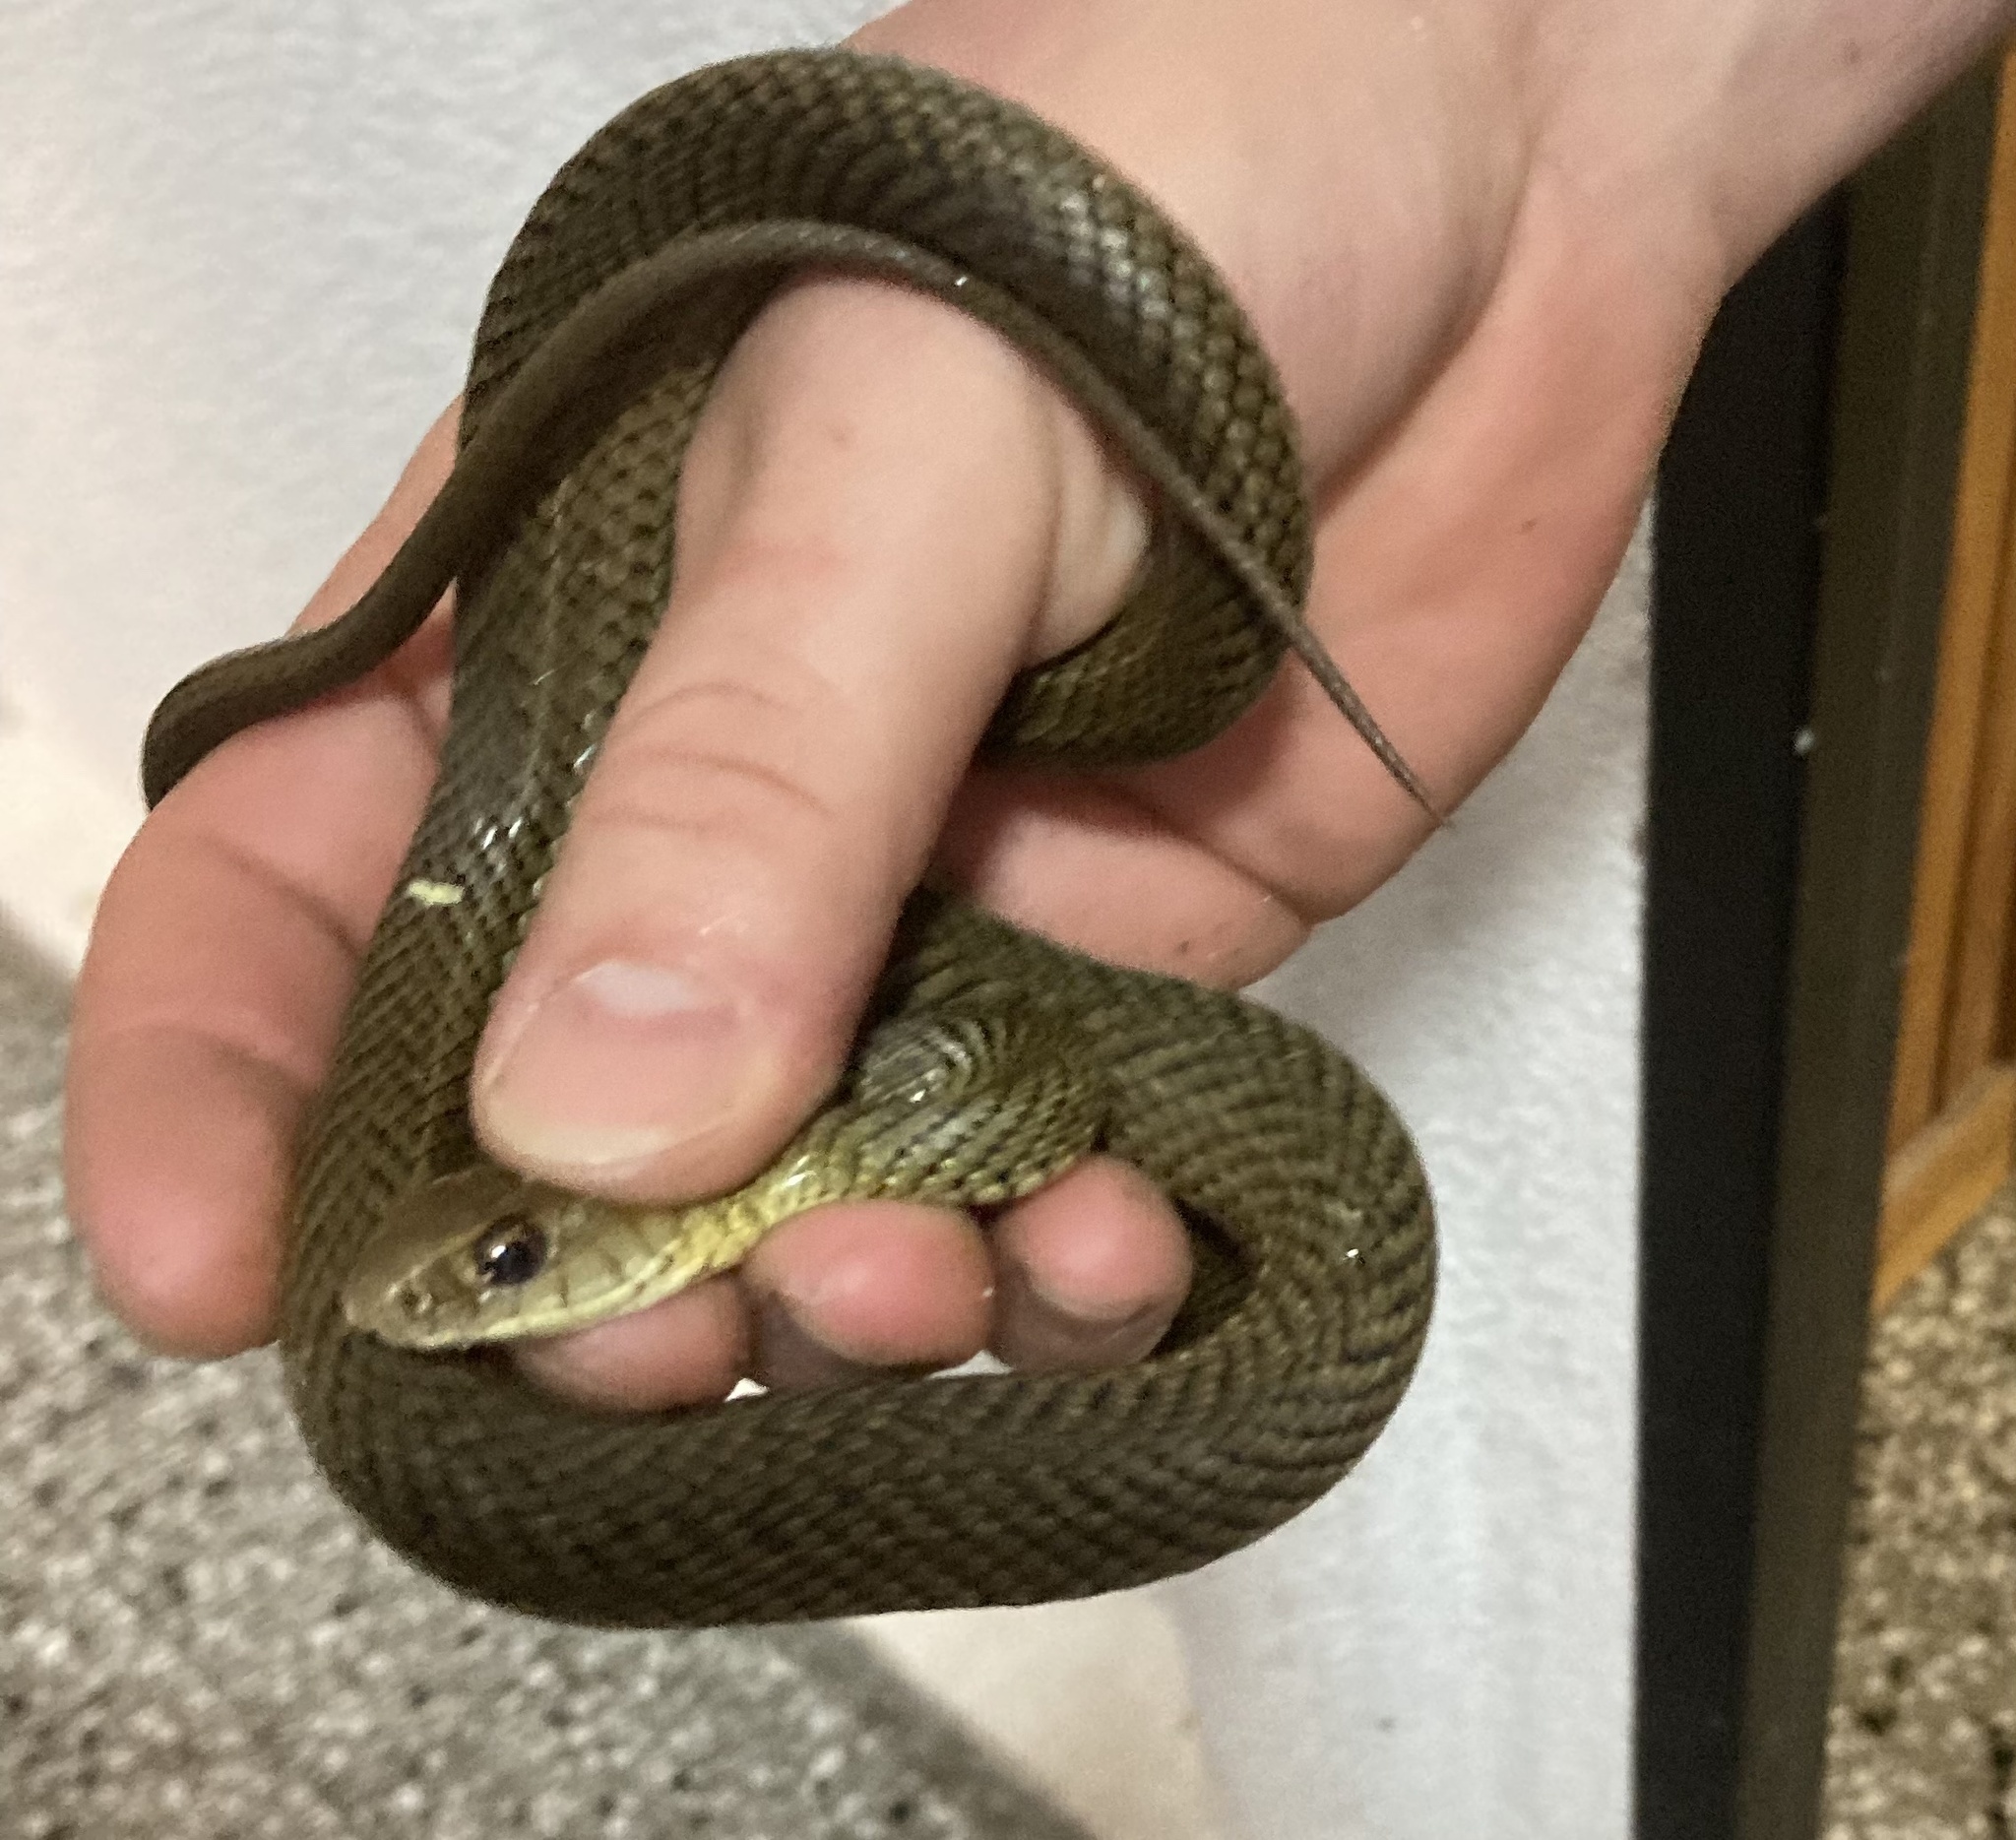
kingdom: Animalia
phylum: Chordata
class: Squamata
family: Colubridae
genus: Philodryas
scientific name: Philodryas patagoniensis
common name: Patagonia green racer
